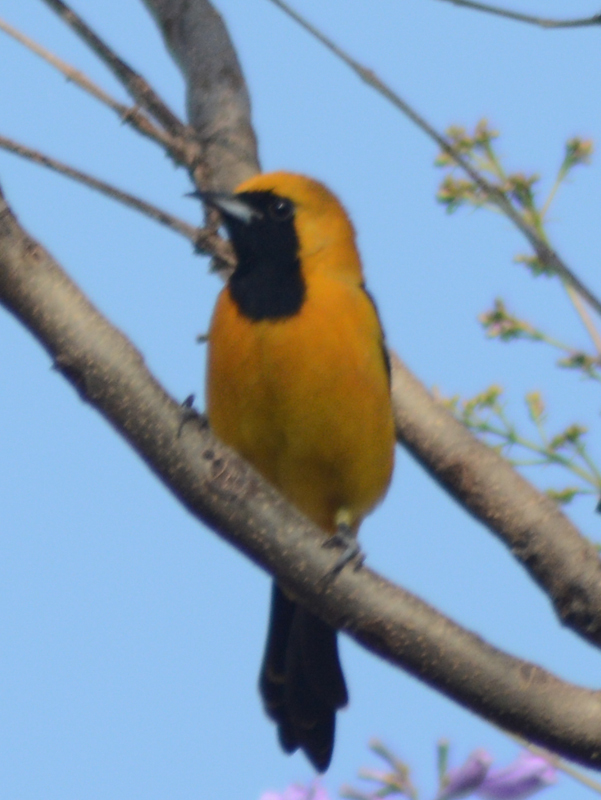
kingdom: Animalia
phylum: Chordata
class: Aves
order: Passeriformes
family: Icteridae
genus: Icterus
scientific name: Icterus cucullatus
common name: Hooded oriole
